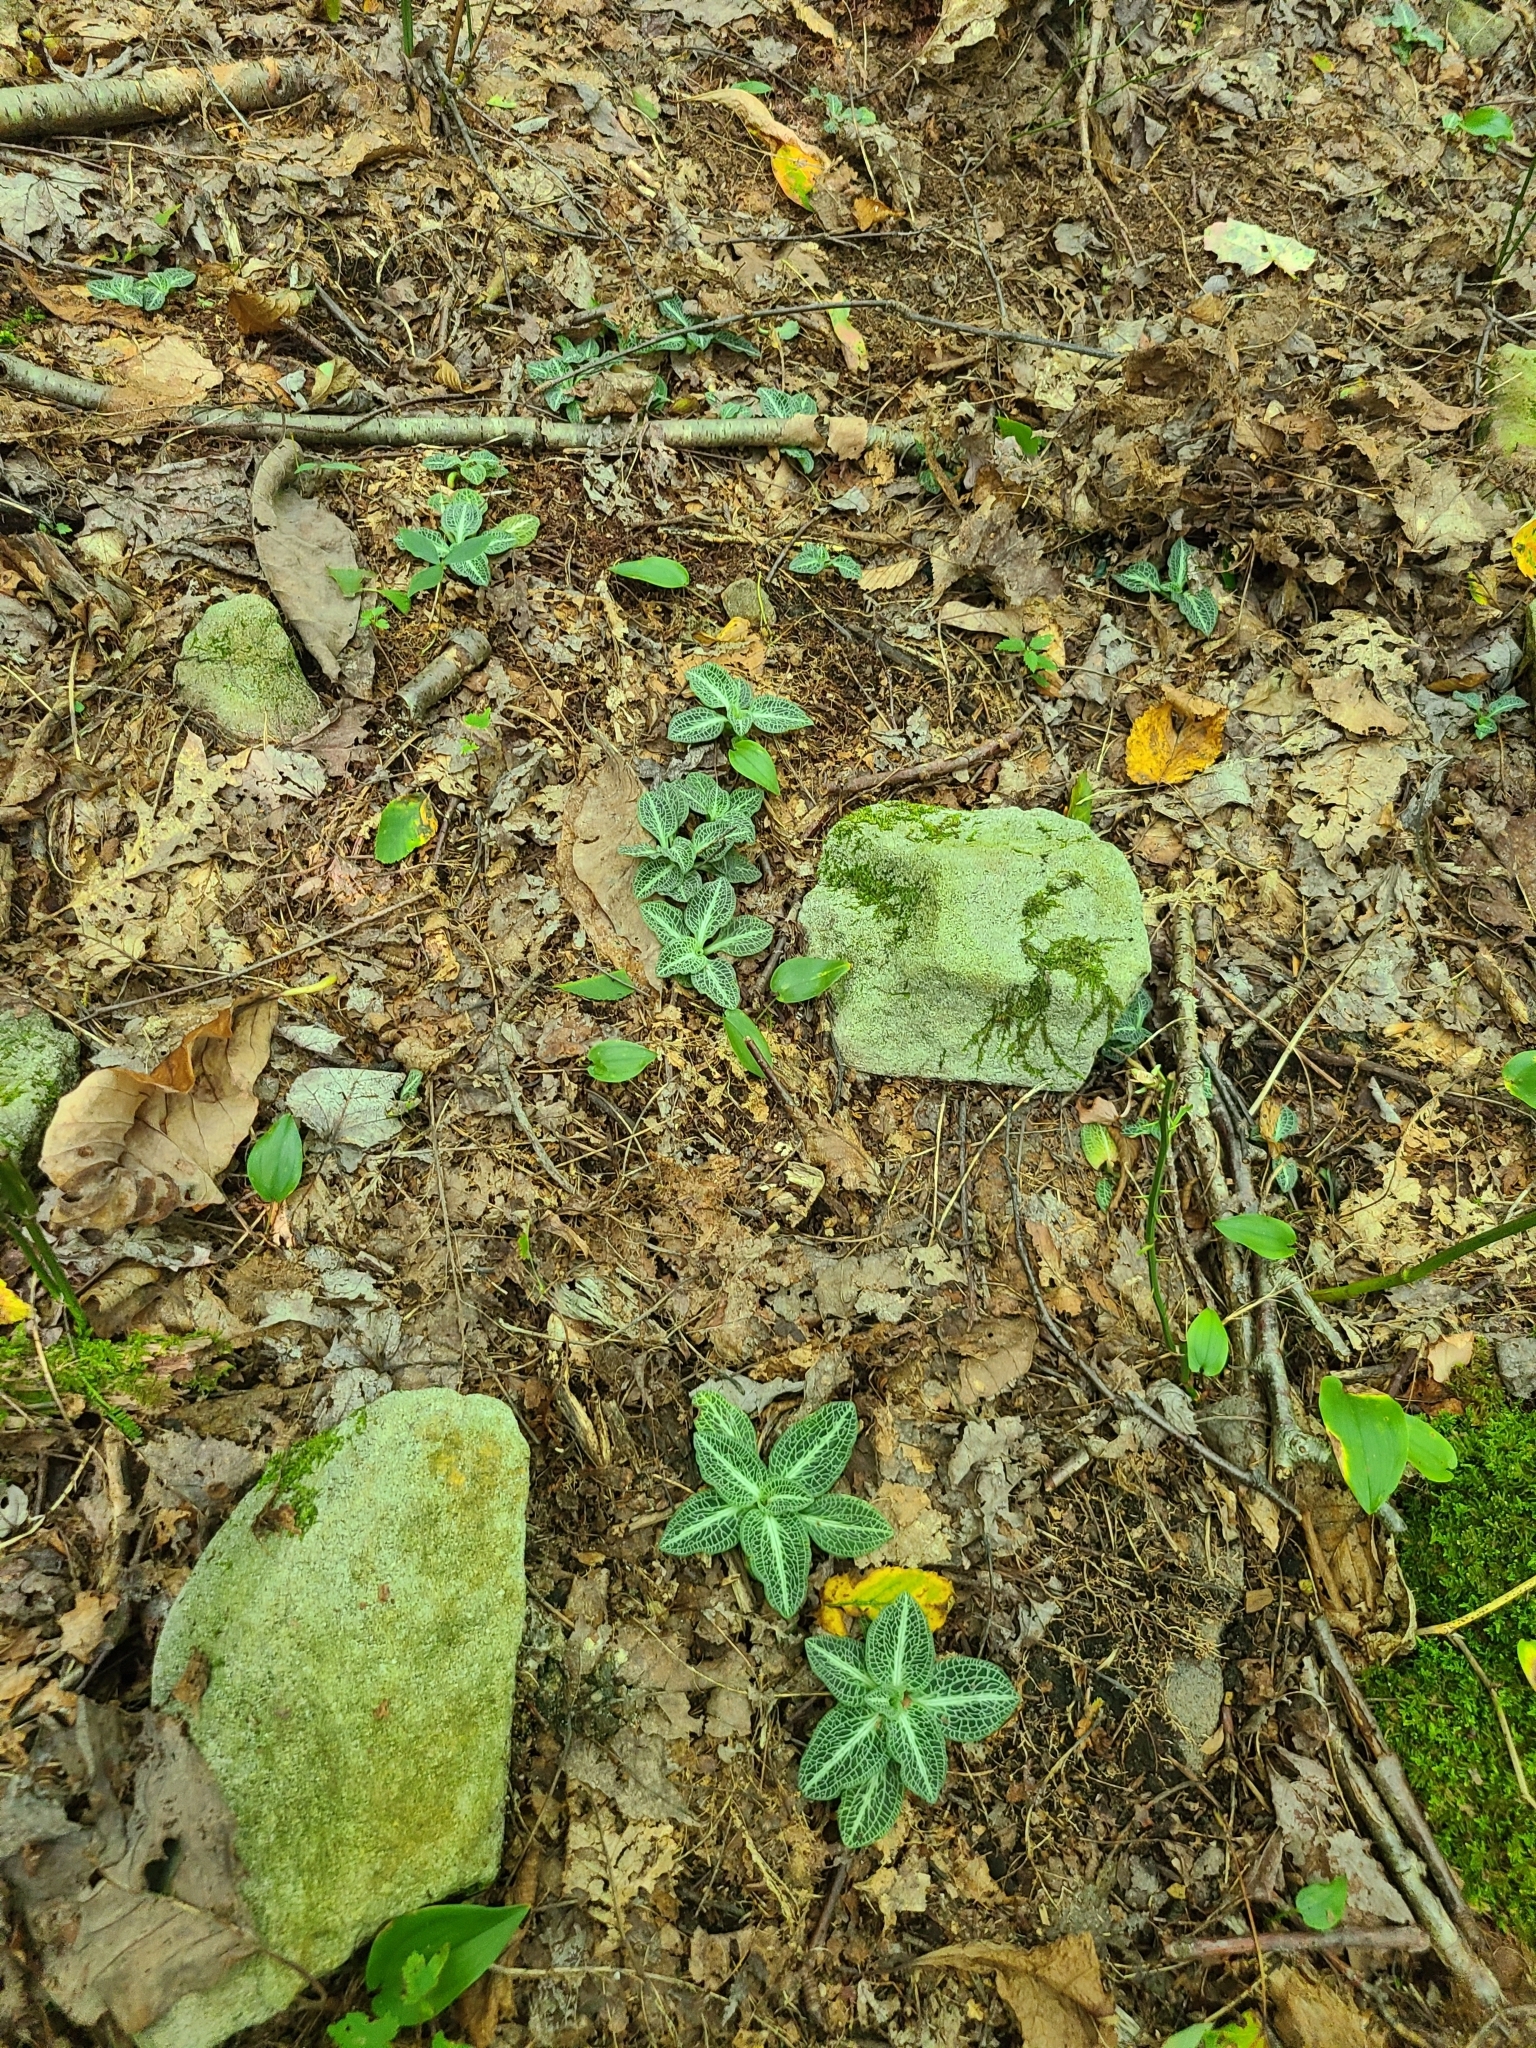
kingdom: Plantae
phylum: Tracheophyta
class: Liliopsida
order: Asparagales
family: Orchidaceae
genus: Goodyera
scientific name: Goodyera pubescens
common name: Downy rattlesnake-plantain
